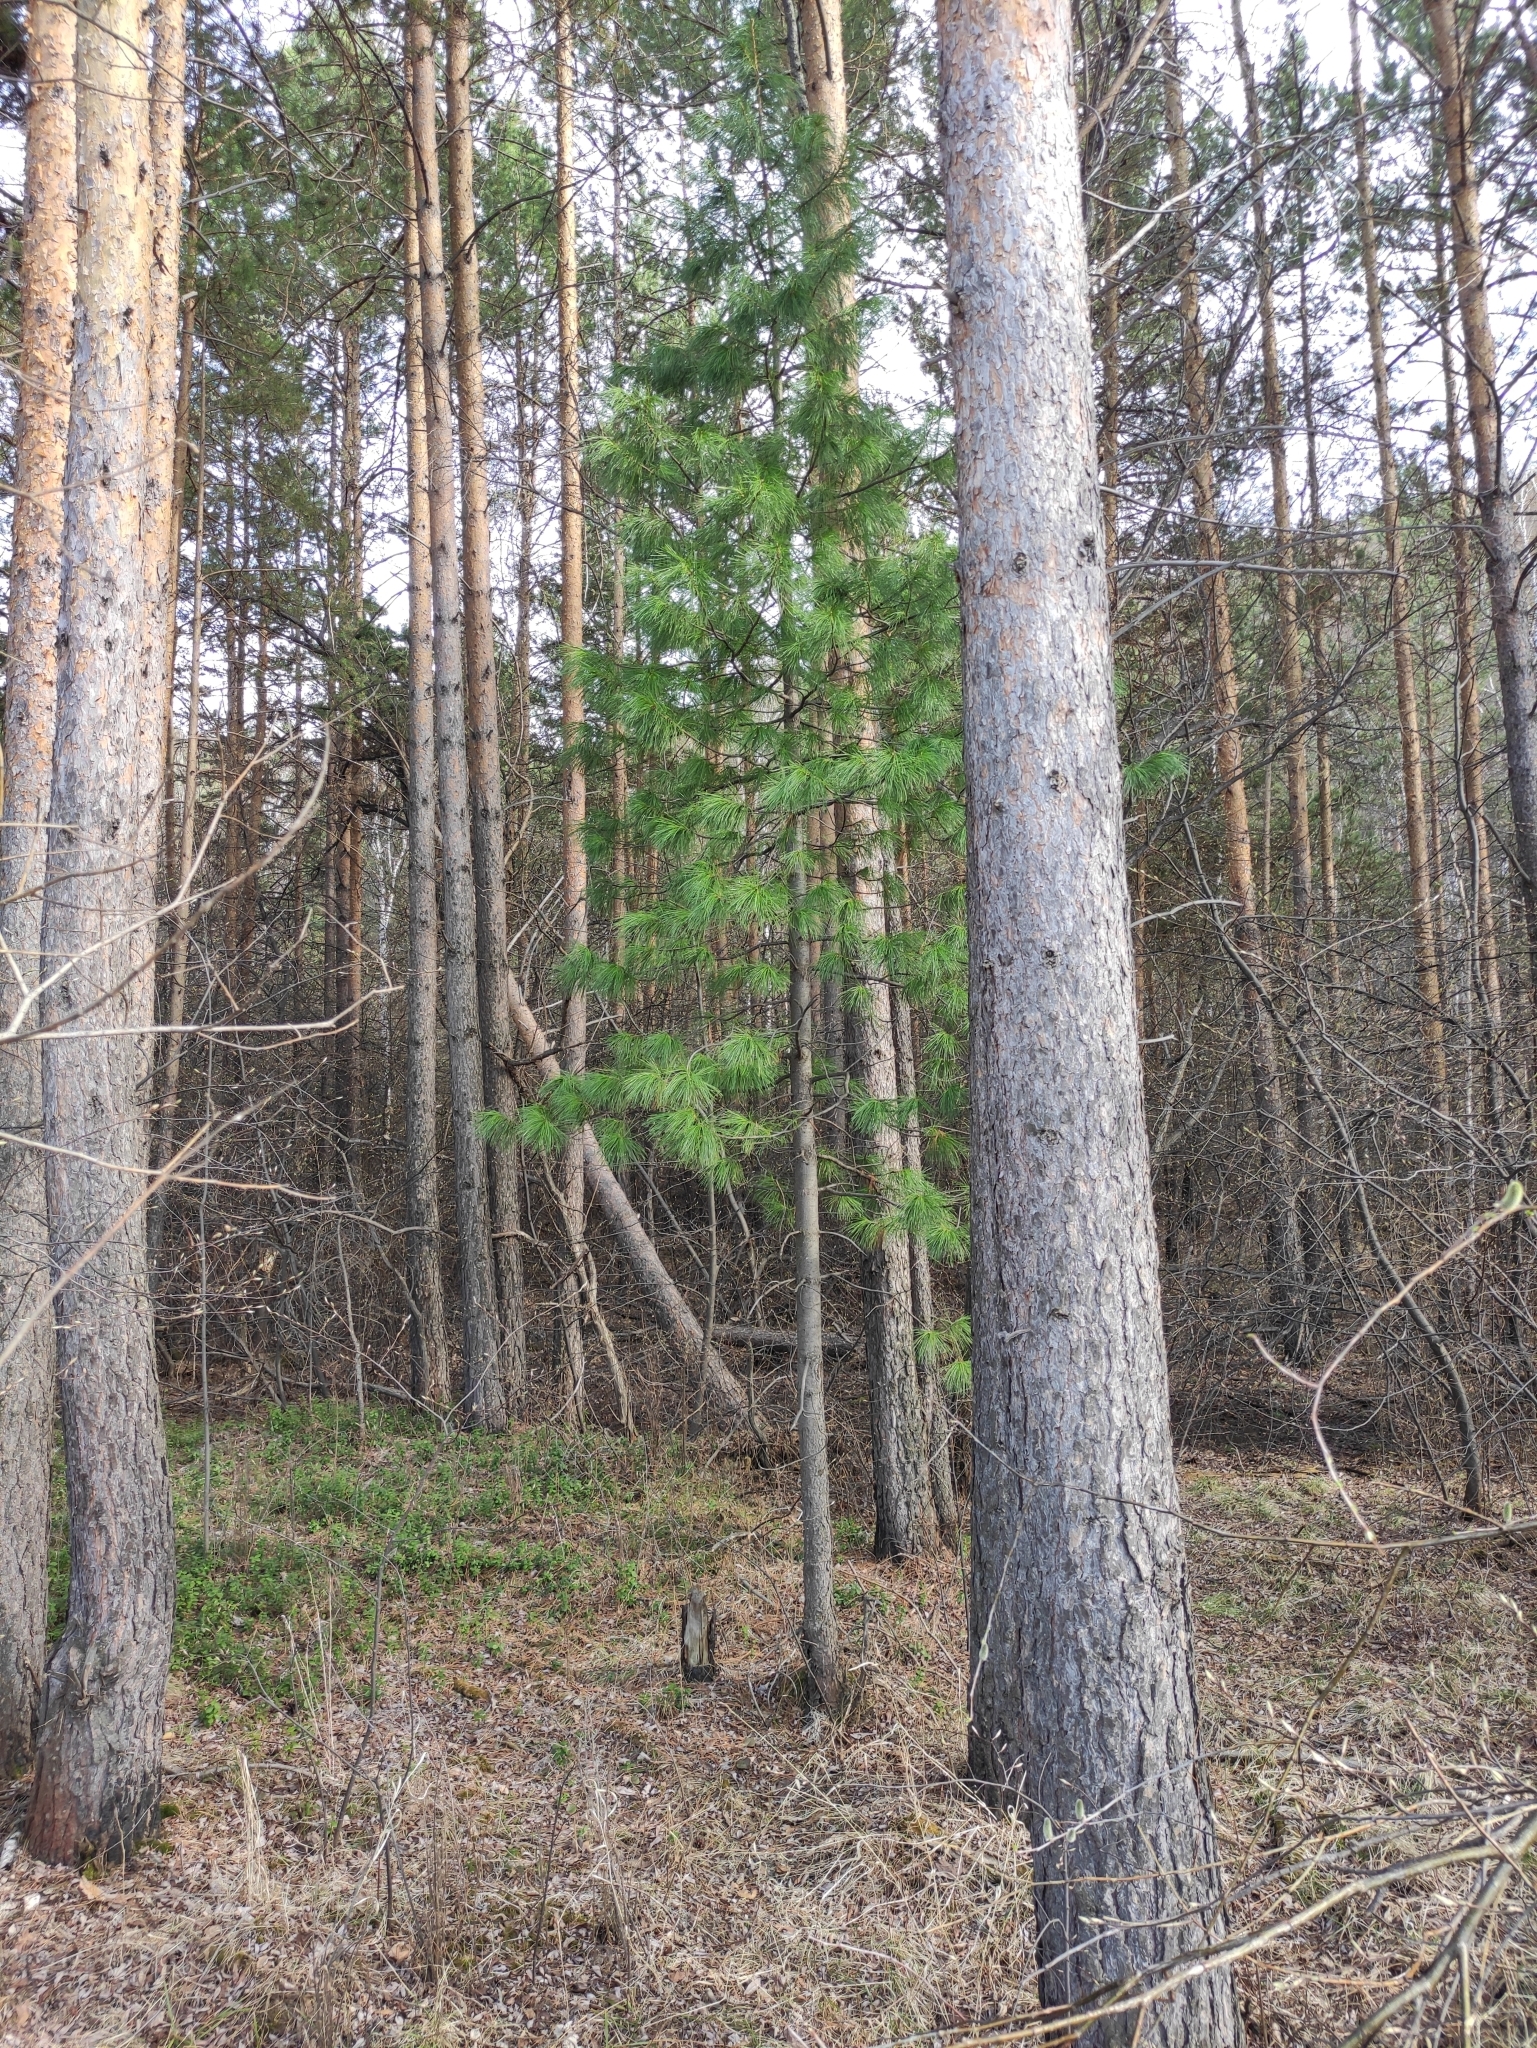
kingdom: Plantae
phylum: Tracheophyta
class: Pinopsida
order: Pinales
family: Pinaceae
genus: Pinus
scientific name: Pinus sibirica
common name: Siberian pine
